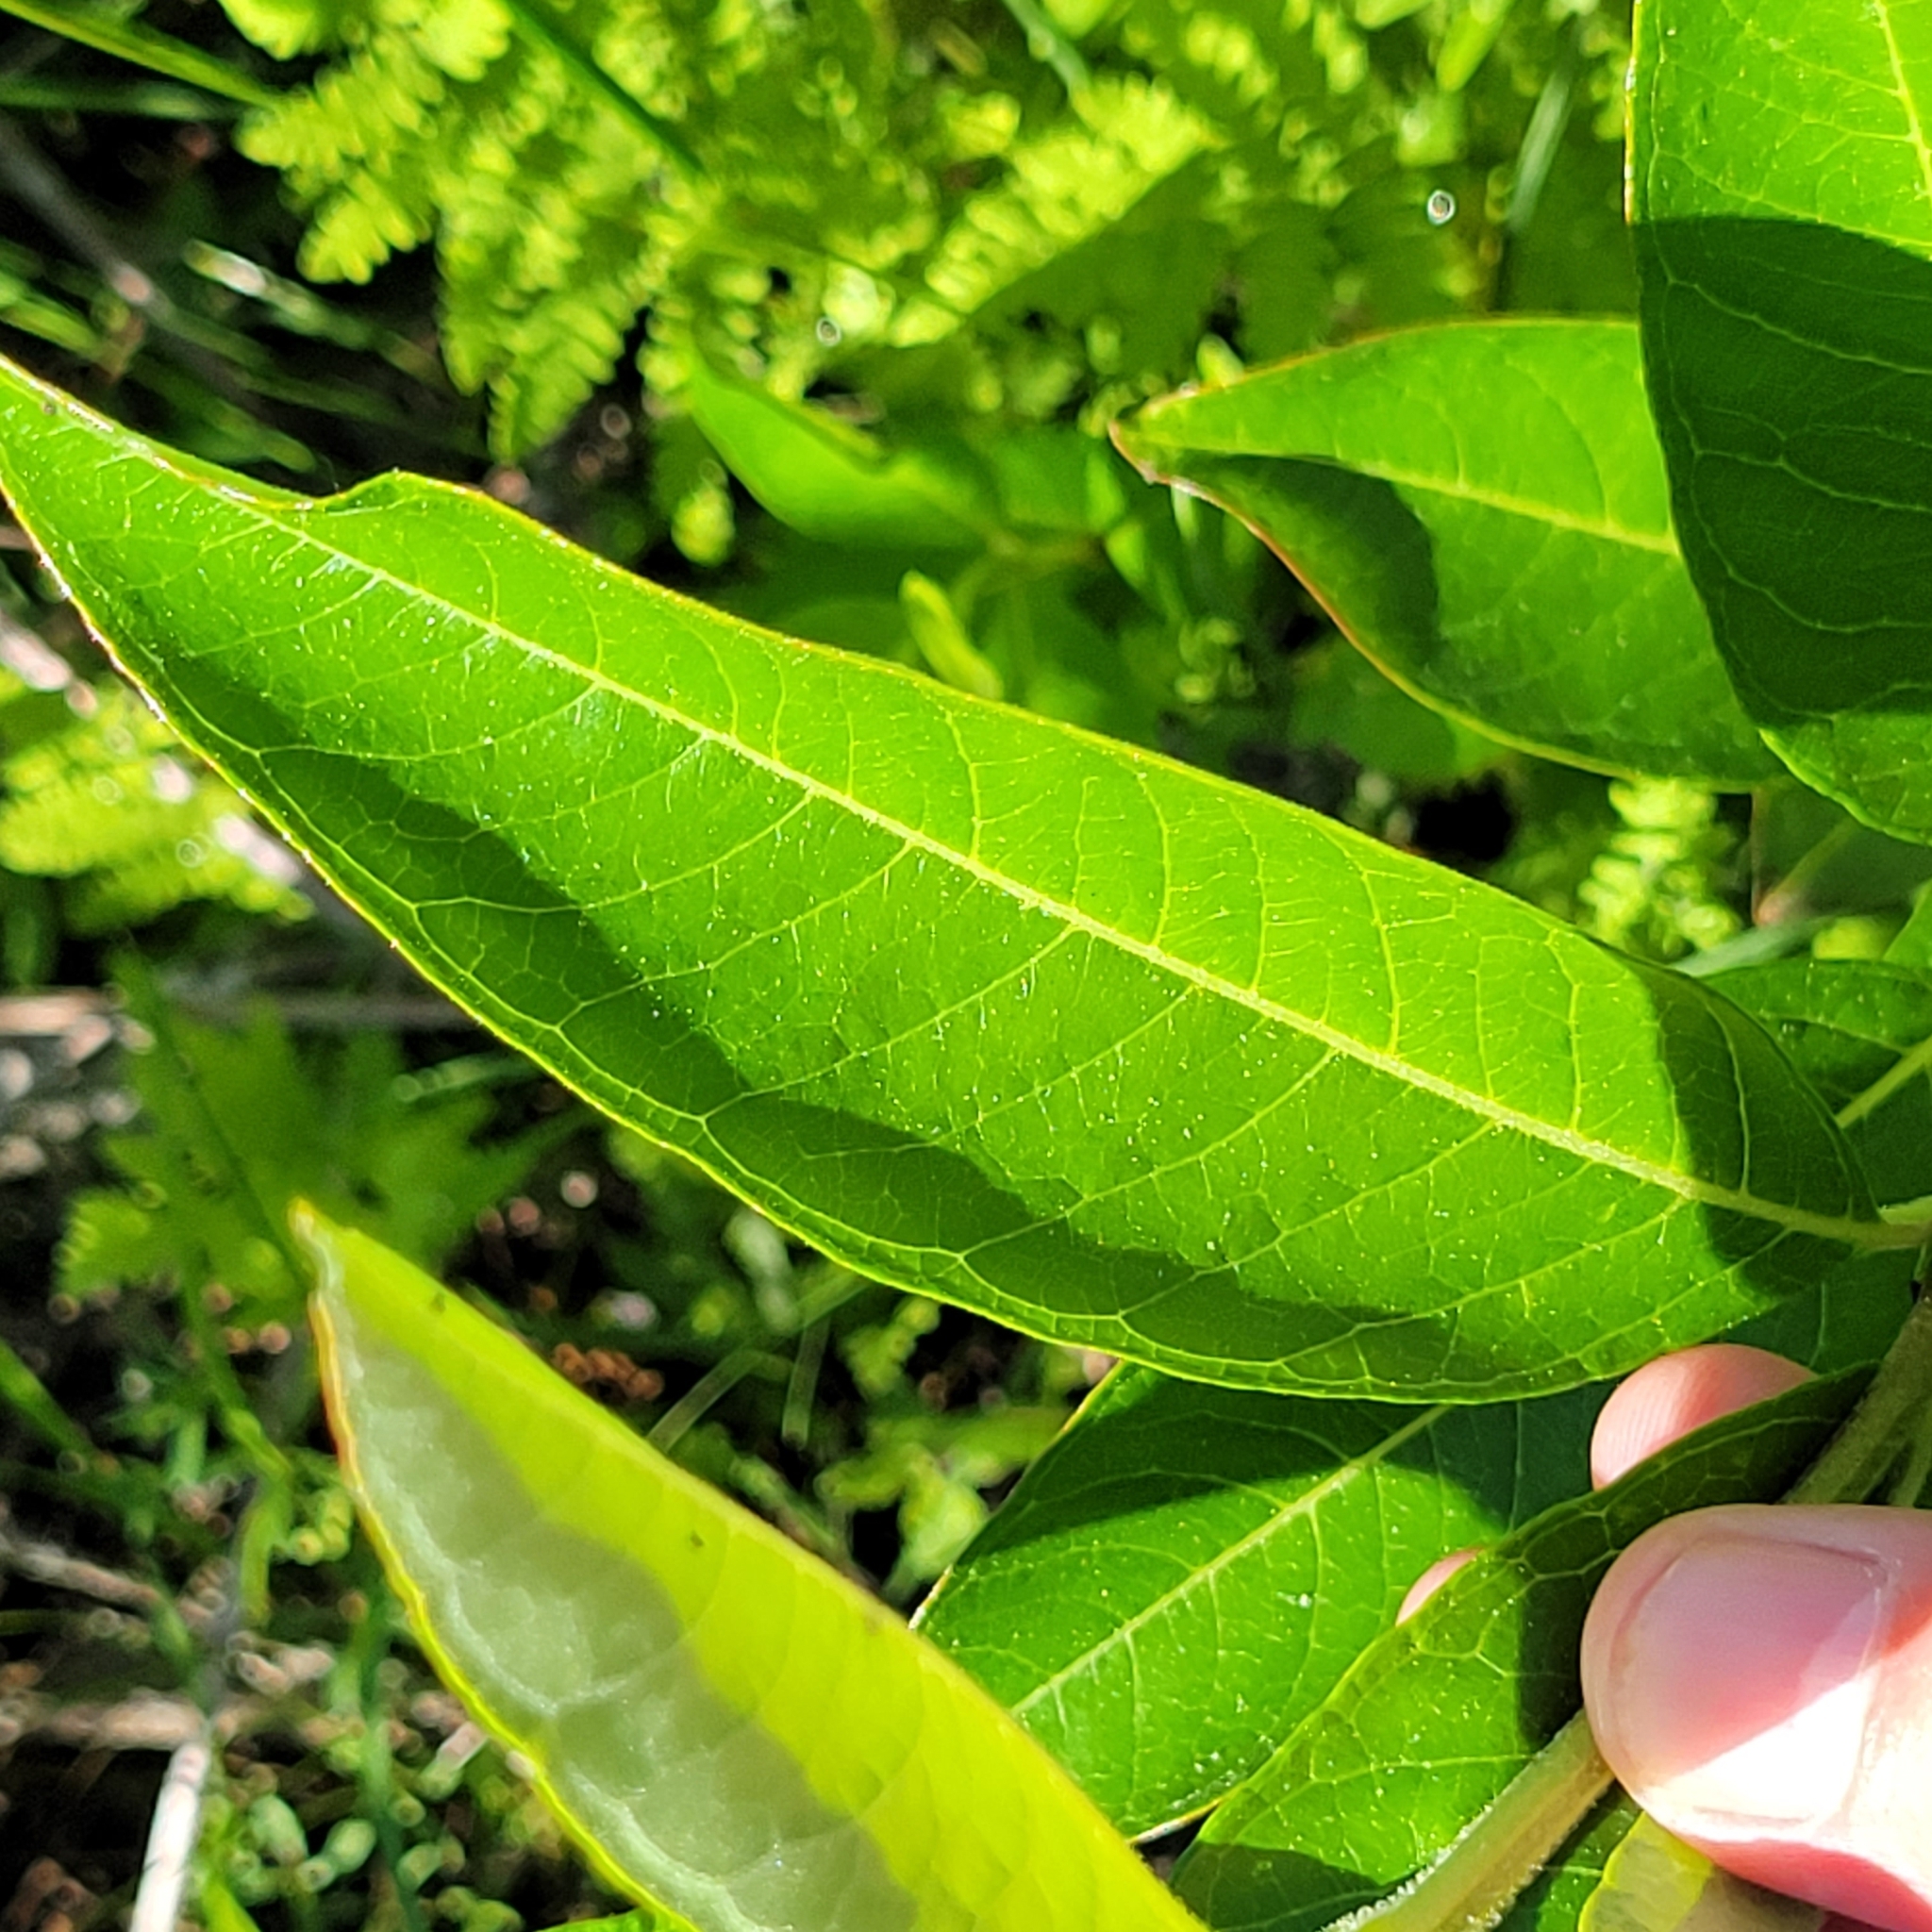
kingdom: Plantae
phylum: Tracheophyta
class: Magnoliopsida
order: Gentianales
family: Apocynaceae
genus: Asclepias
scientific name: Asclepias incarnata
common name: Swamp milkweed
